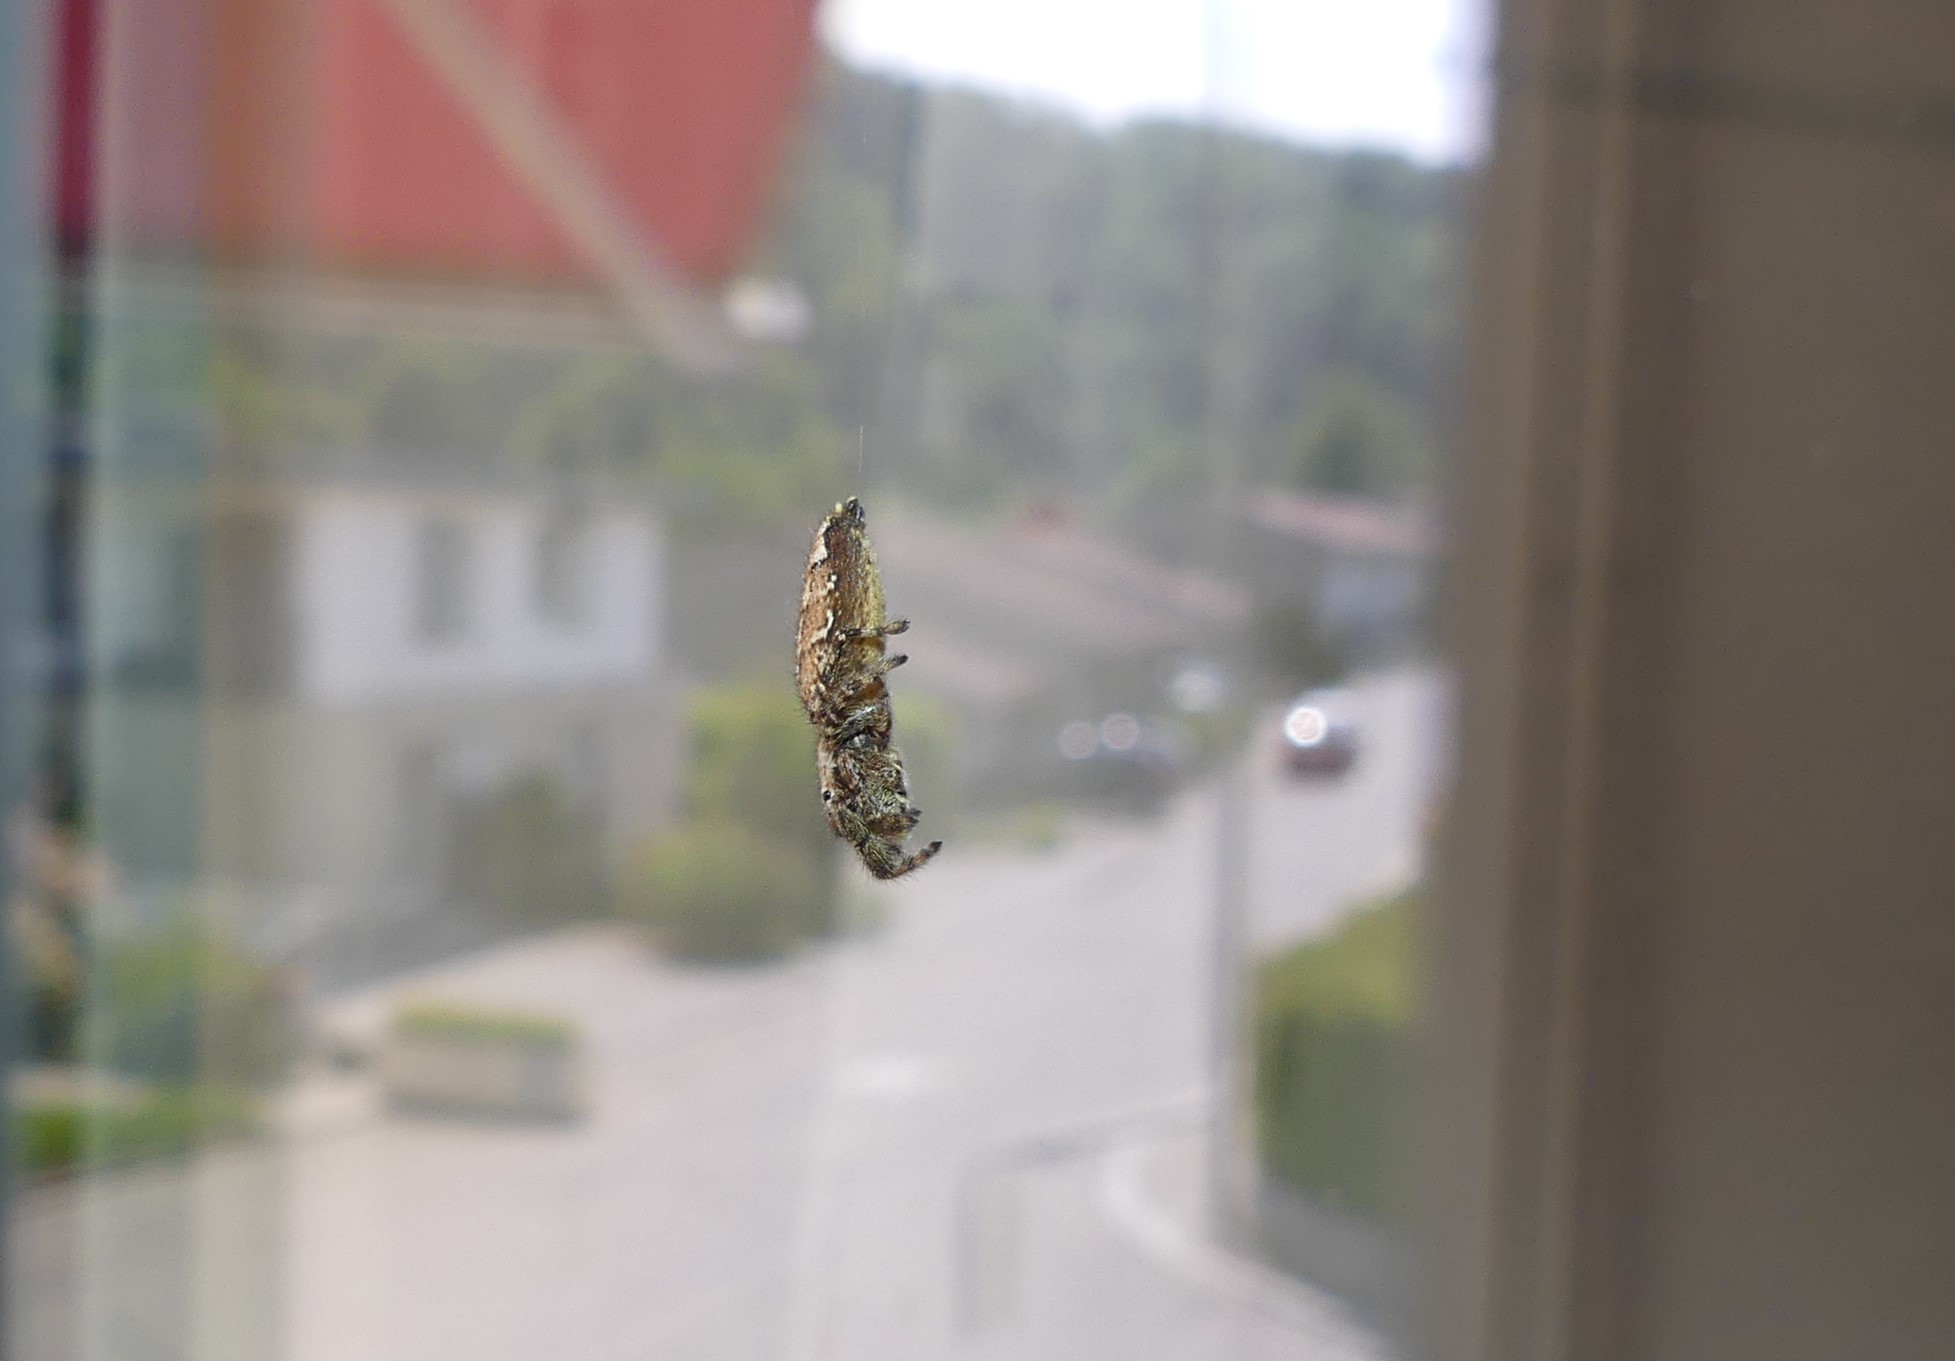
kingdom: Animalia
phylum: Arthropoda
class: Arachnida
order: Araneae
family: Salticidae
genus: Marpissa
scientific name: Marpissa muscosa
